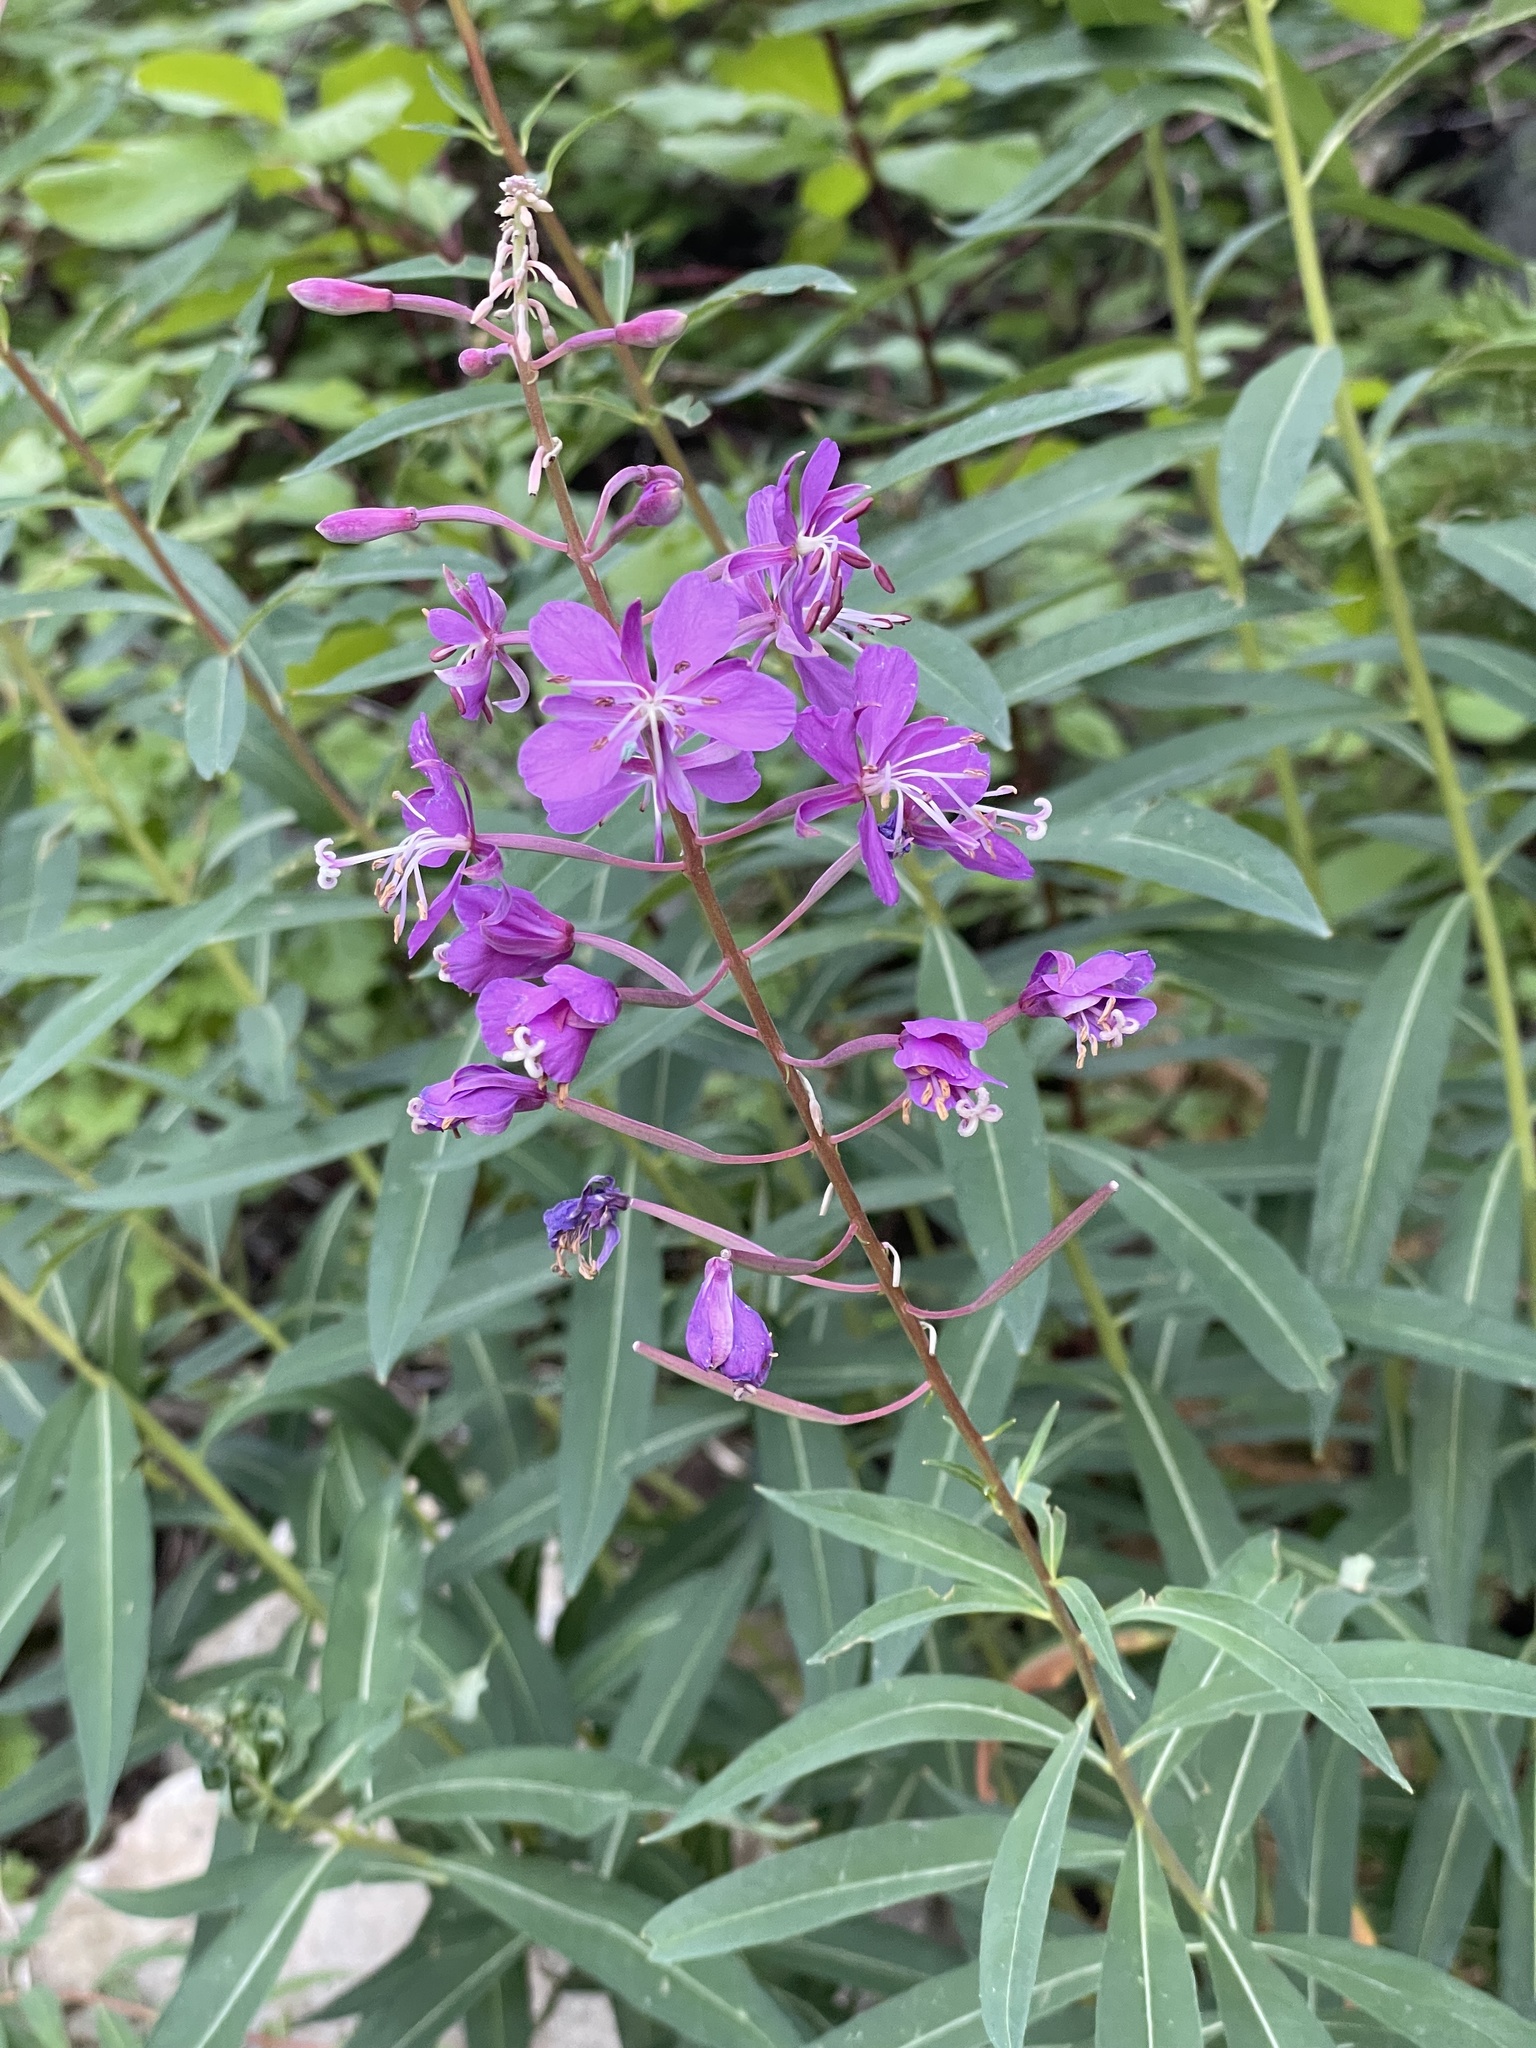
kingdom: Plantae
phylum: Tracheophyta
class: Magnoliopsida
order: Myrtales
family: Onagraceae
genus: Chamaenerion
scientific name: Chamaenerion angustifolium
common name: Fireweed
